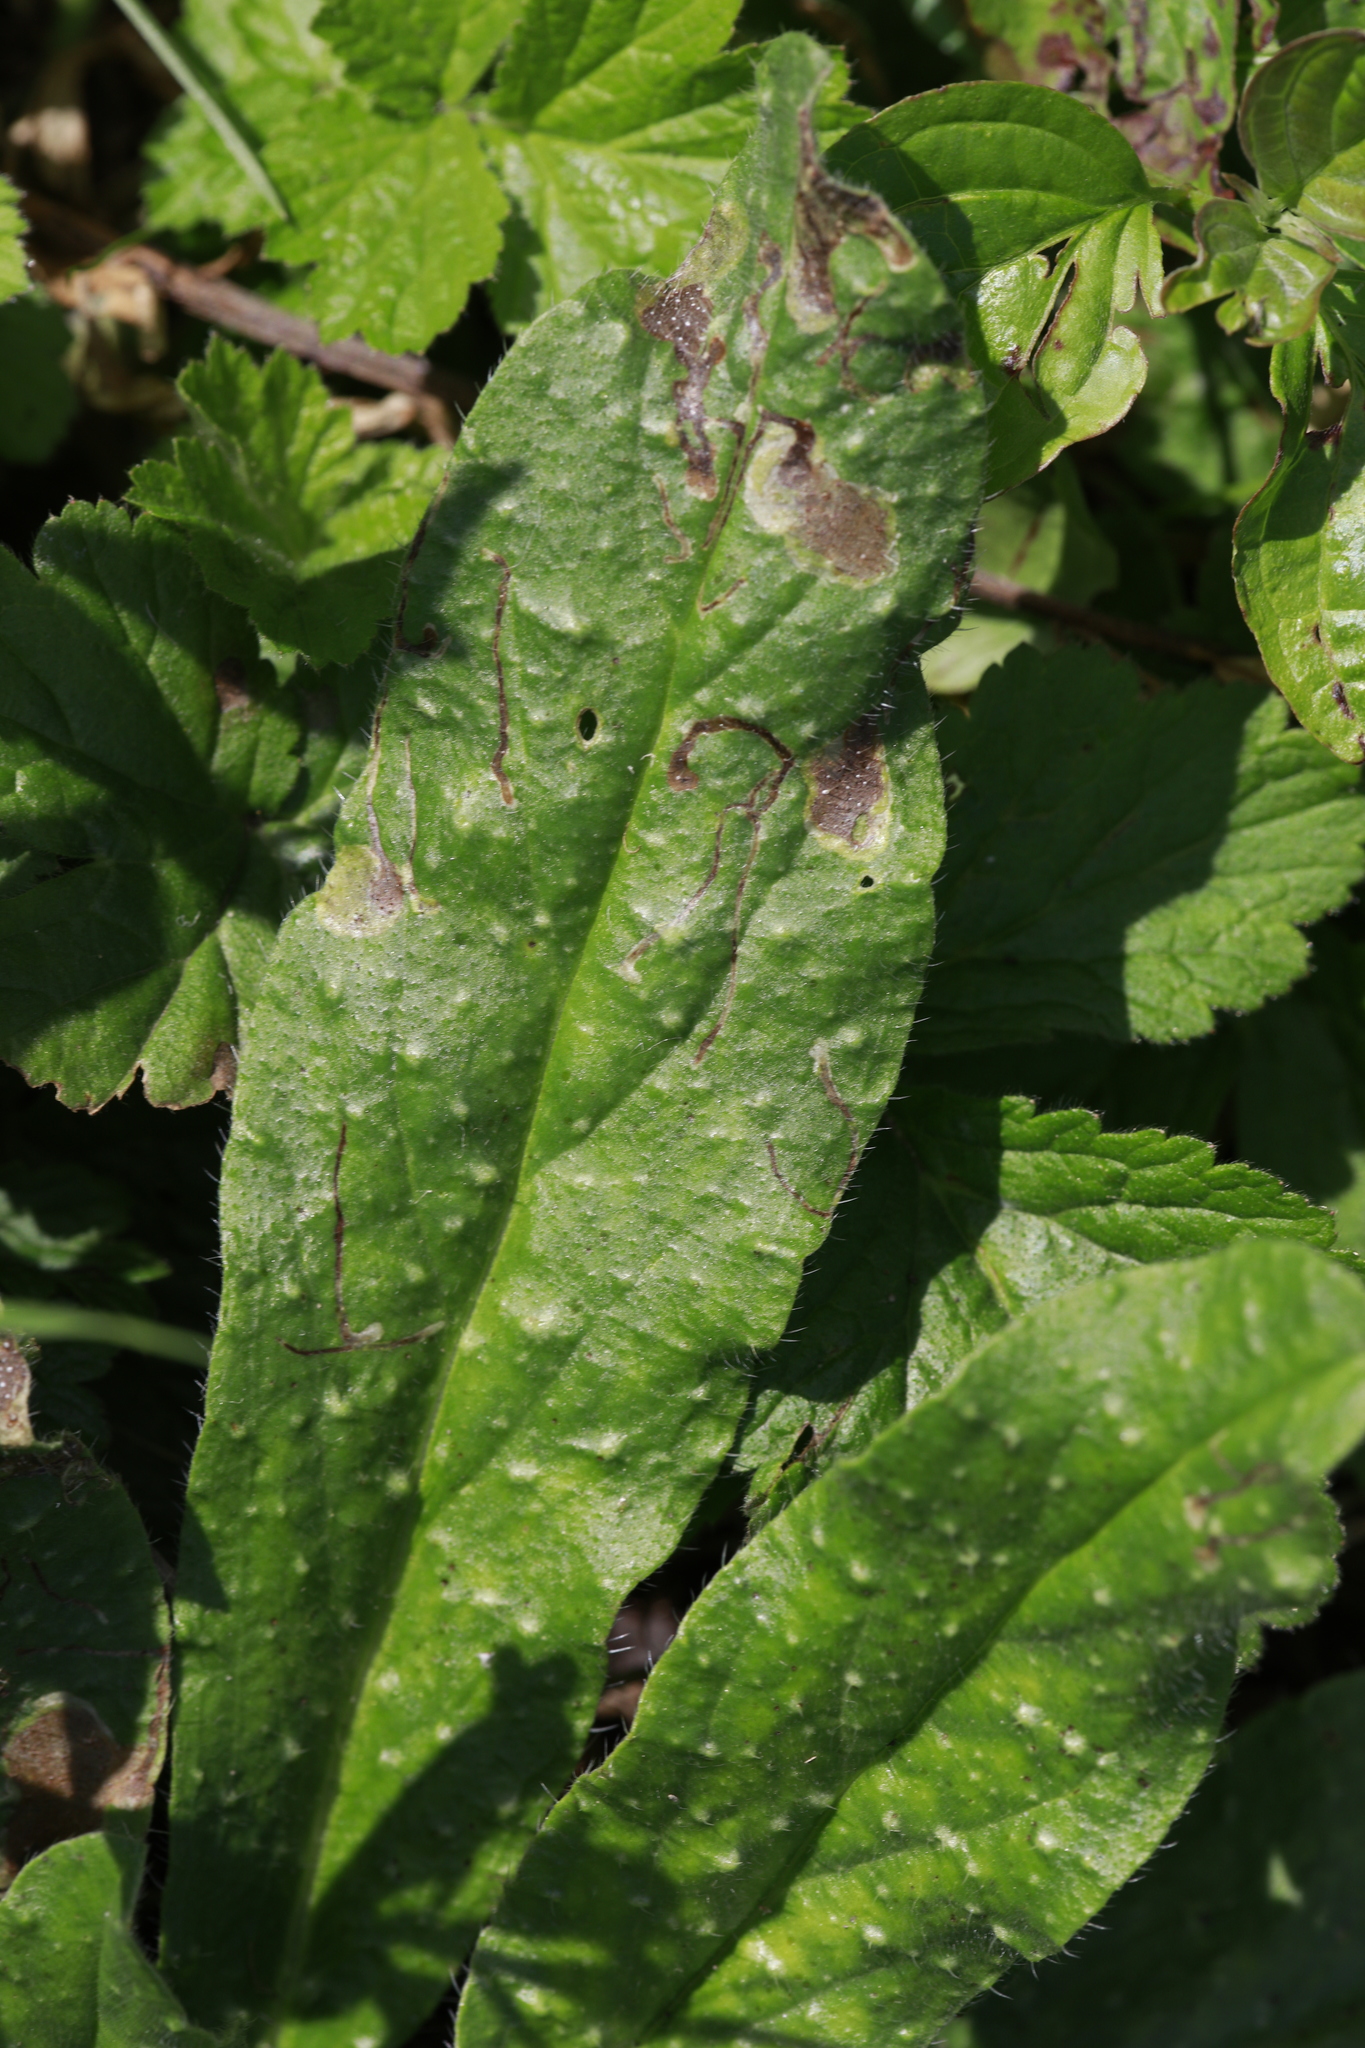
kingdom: Plantae
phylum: Tracheophyta
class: Magnoliopsida
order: Boraginales
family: Boraginaceae
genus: Pentaglottis
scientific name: Pentaglottis sempervirens
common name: Green alkanet
